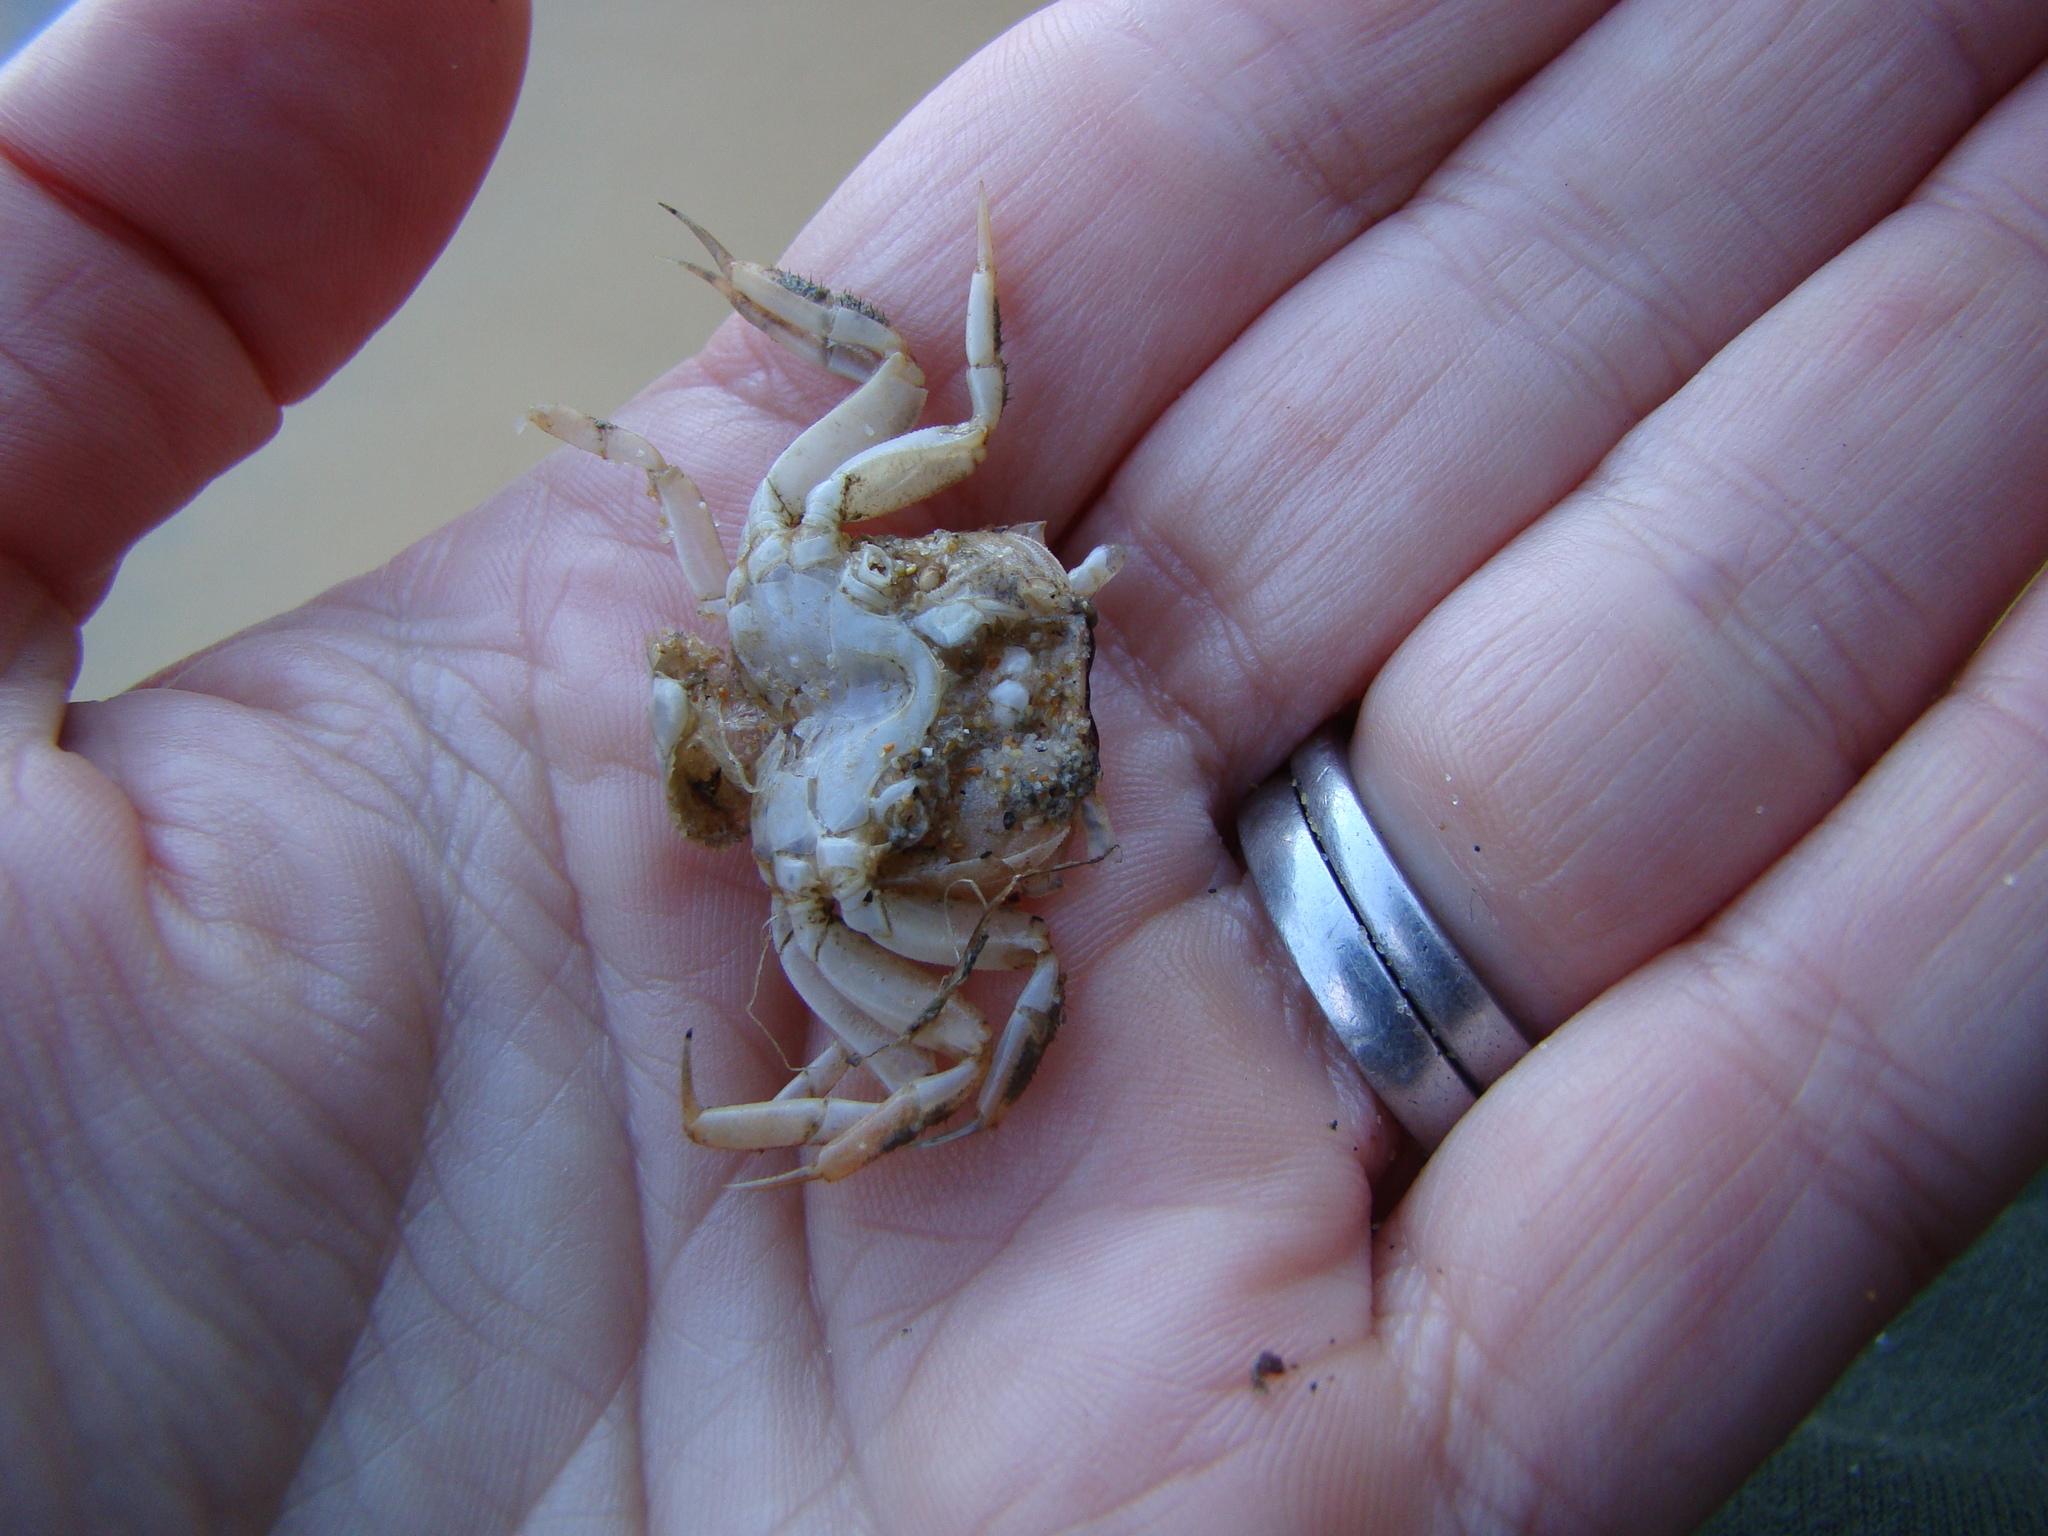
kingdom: Animalia
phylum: Arthropoda
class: Malacostraca
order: Decapoda
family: Varunidae
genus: Austrohelice
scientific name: Austrohelice crassa
